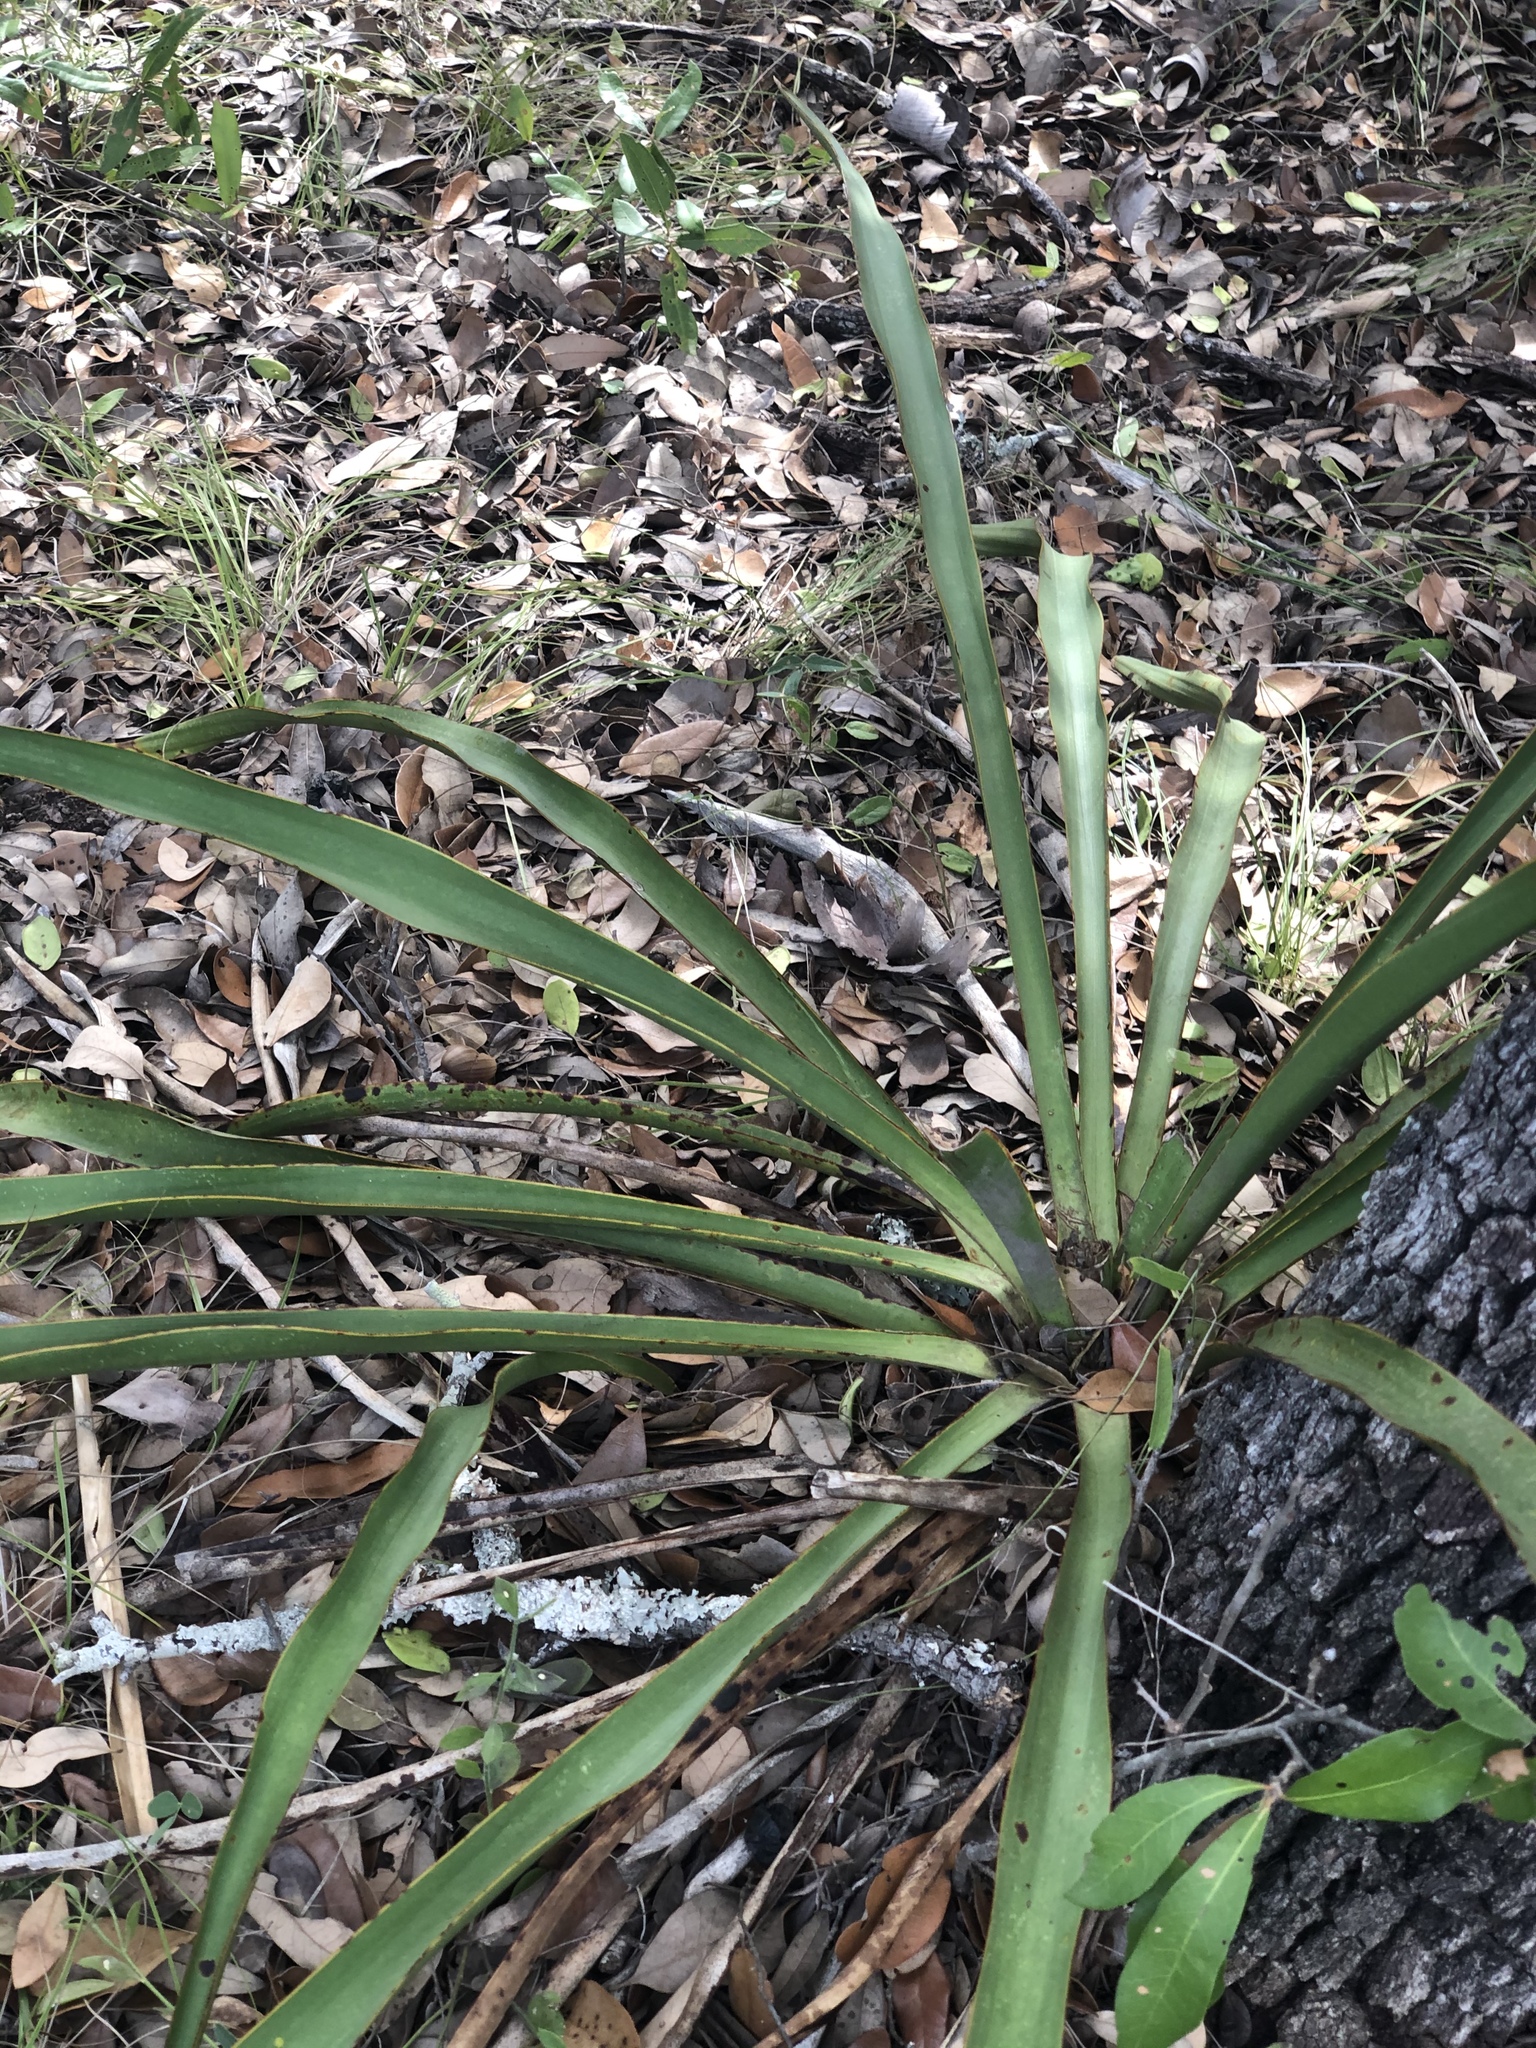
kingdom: Plantae
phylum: Tracheophyta
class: Liliopsida
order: Asparagales
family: Asparagaceae
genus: Yucca
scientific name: Yucca rupicola
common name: Twisted-leaf spanish-dagger
